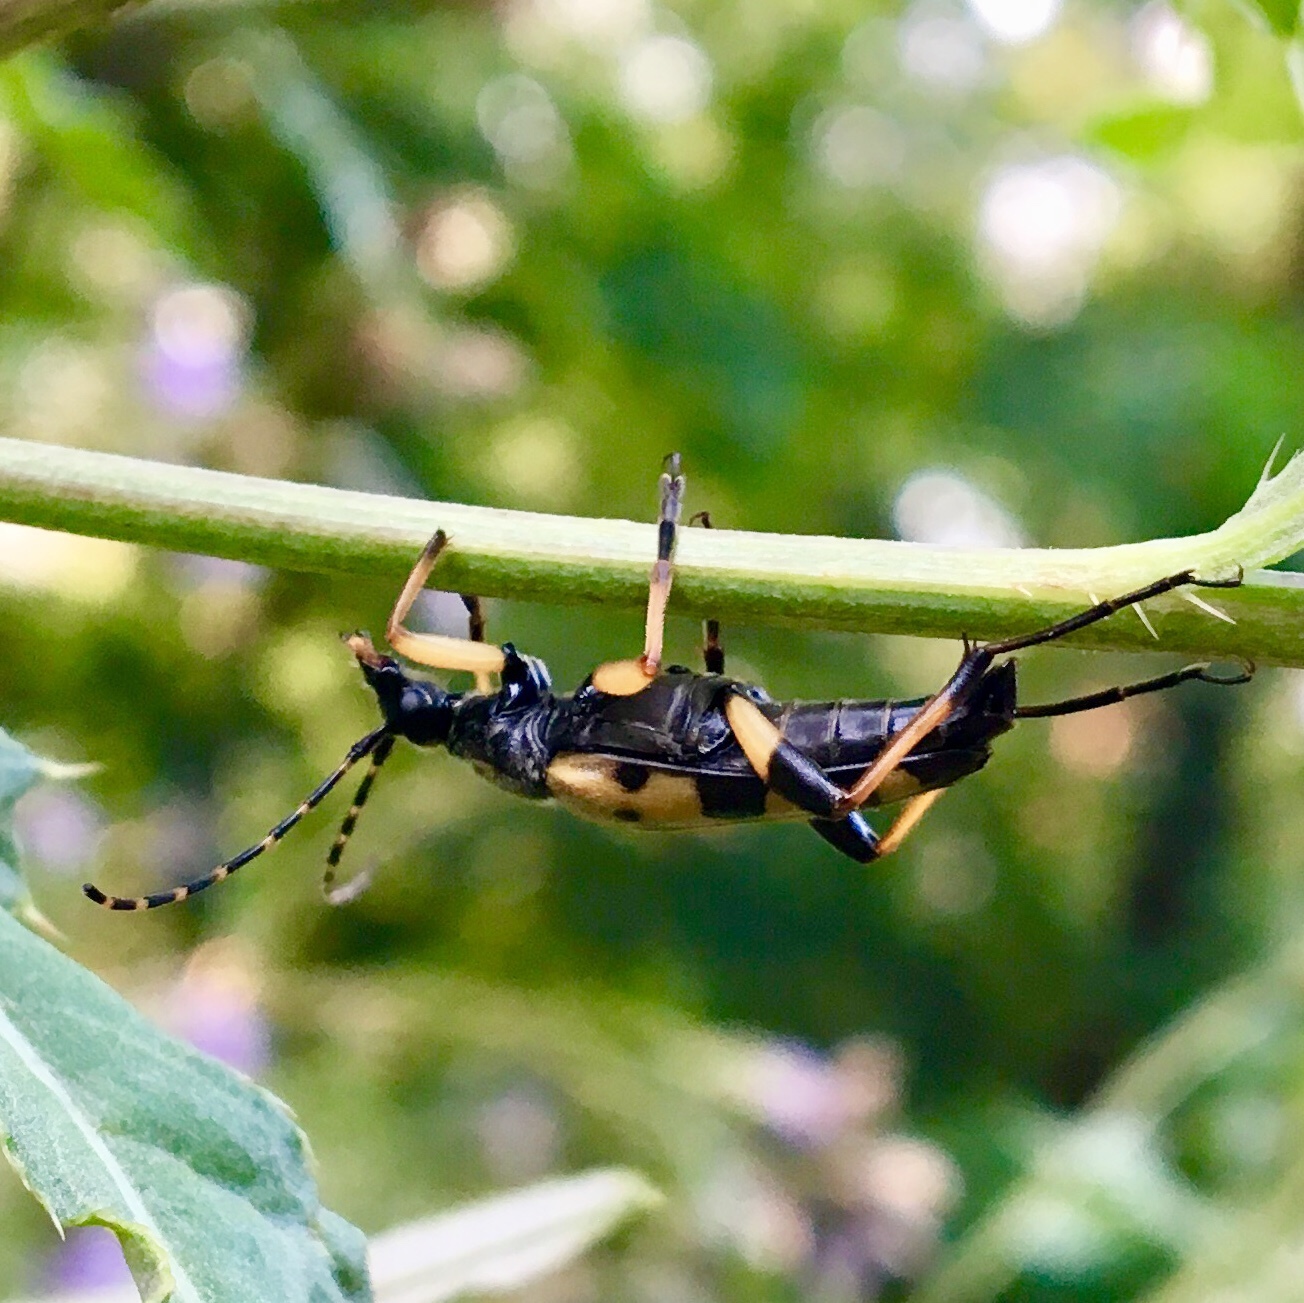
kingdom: Animalia
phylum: Arthropoda
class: Insecta
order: Coleoptera
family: Cerambycidae
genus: Rutpela
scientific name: Rutpela maculata
